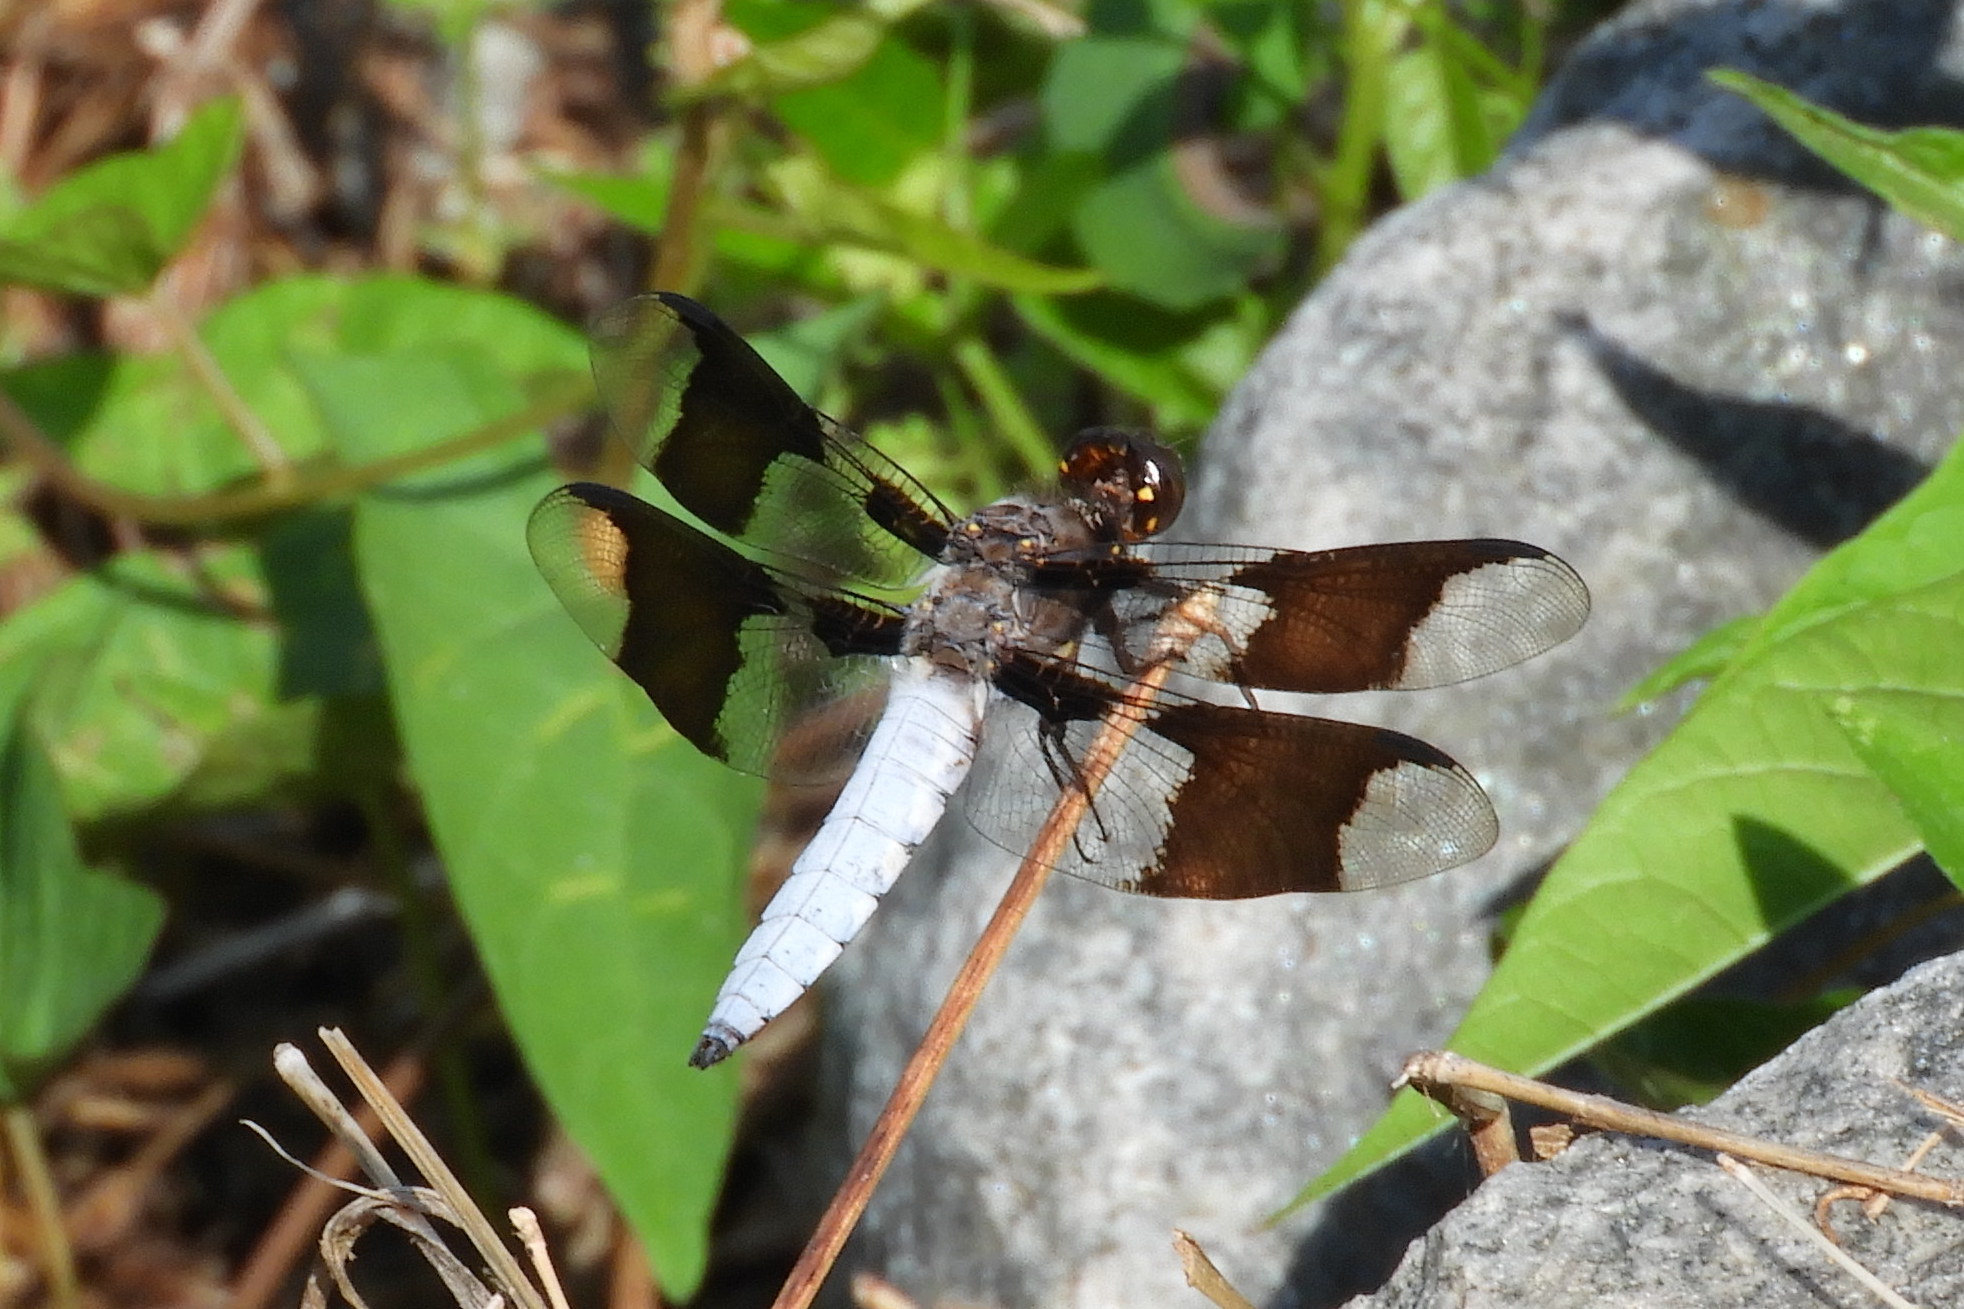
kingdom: Animalia
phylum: Arthropoda
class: Insecta
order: Odonata
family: Libellulidae
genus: Plathemis
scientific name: Plathemis lydia
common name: Common whitetail
